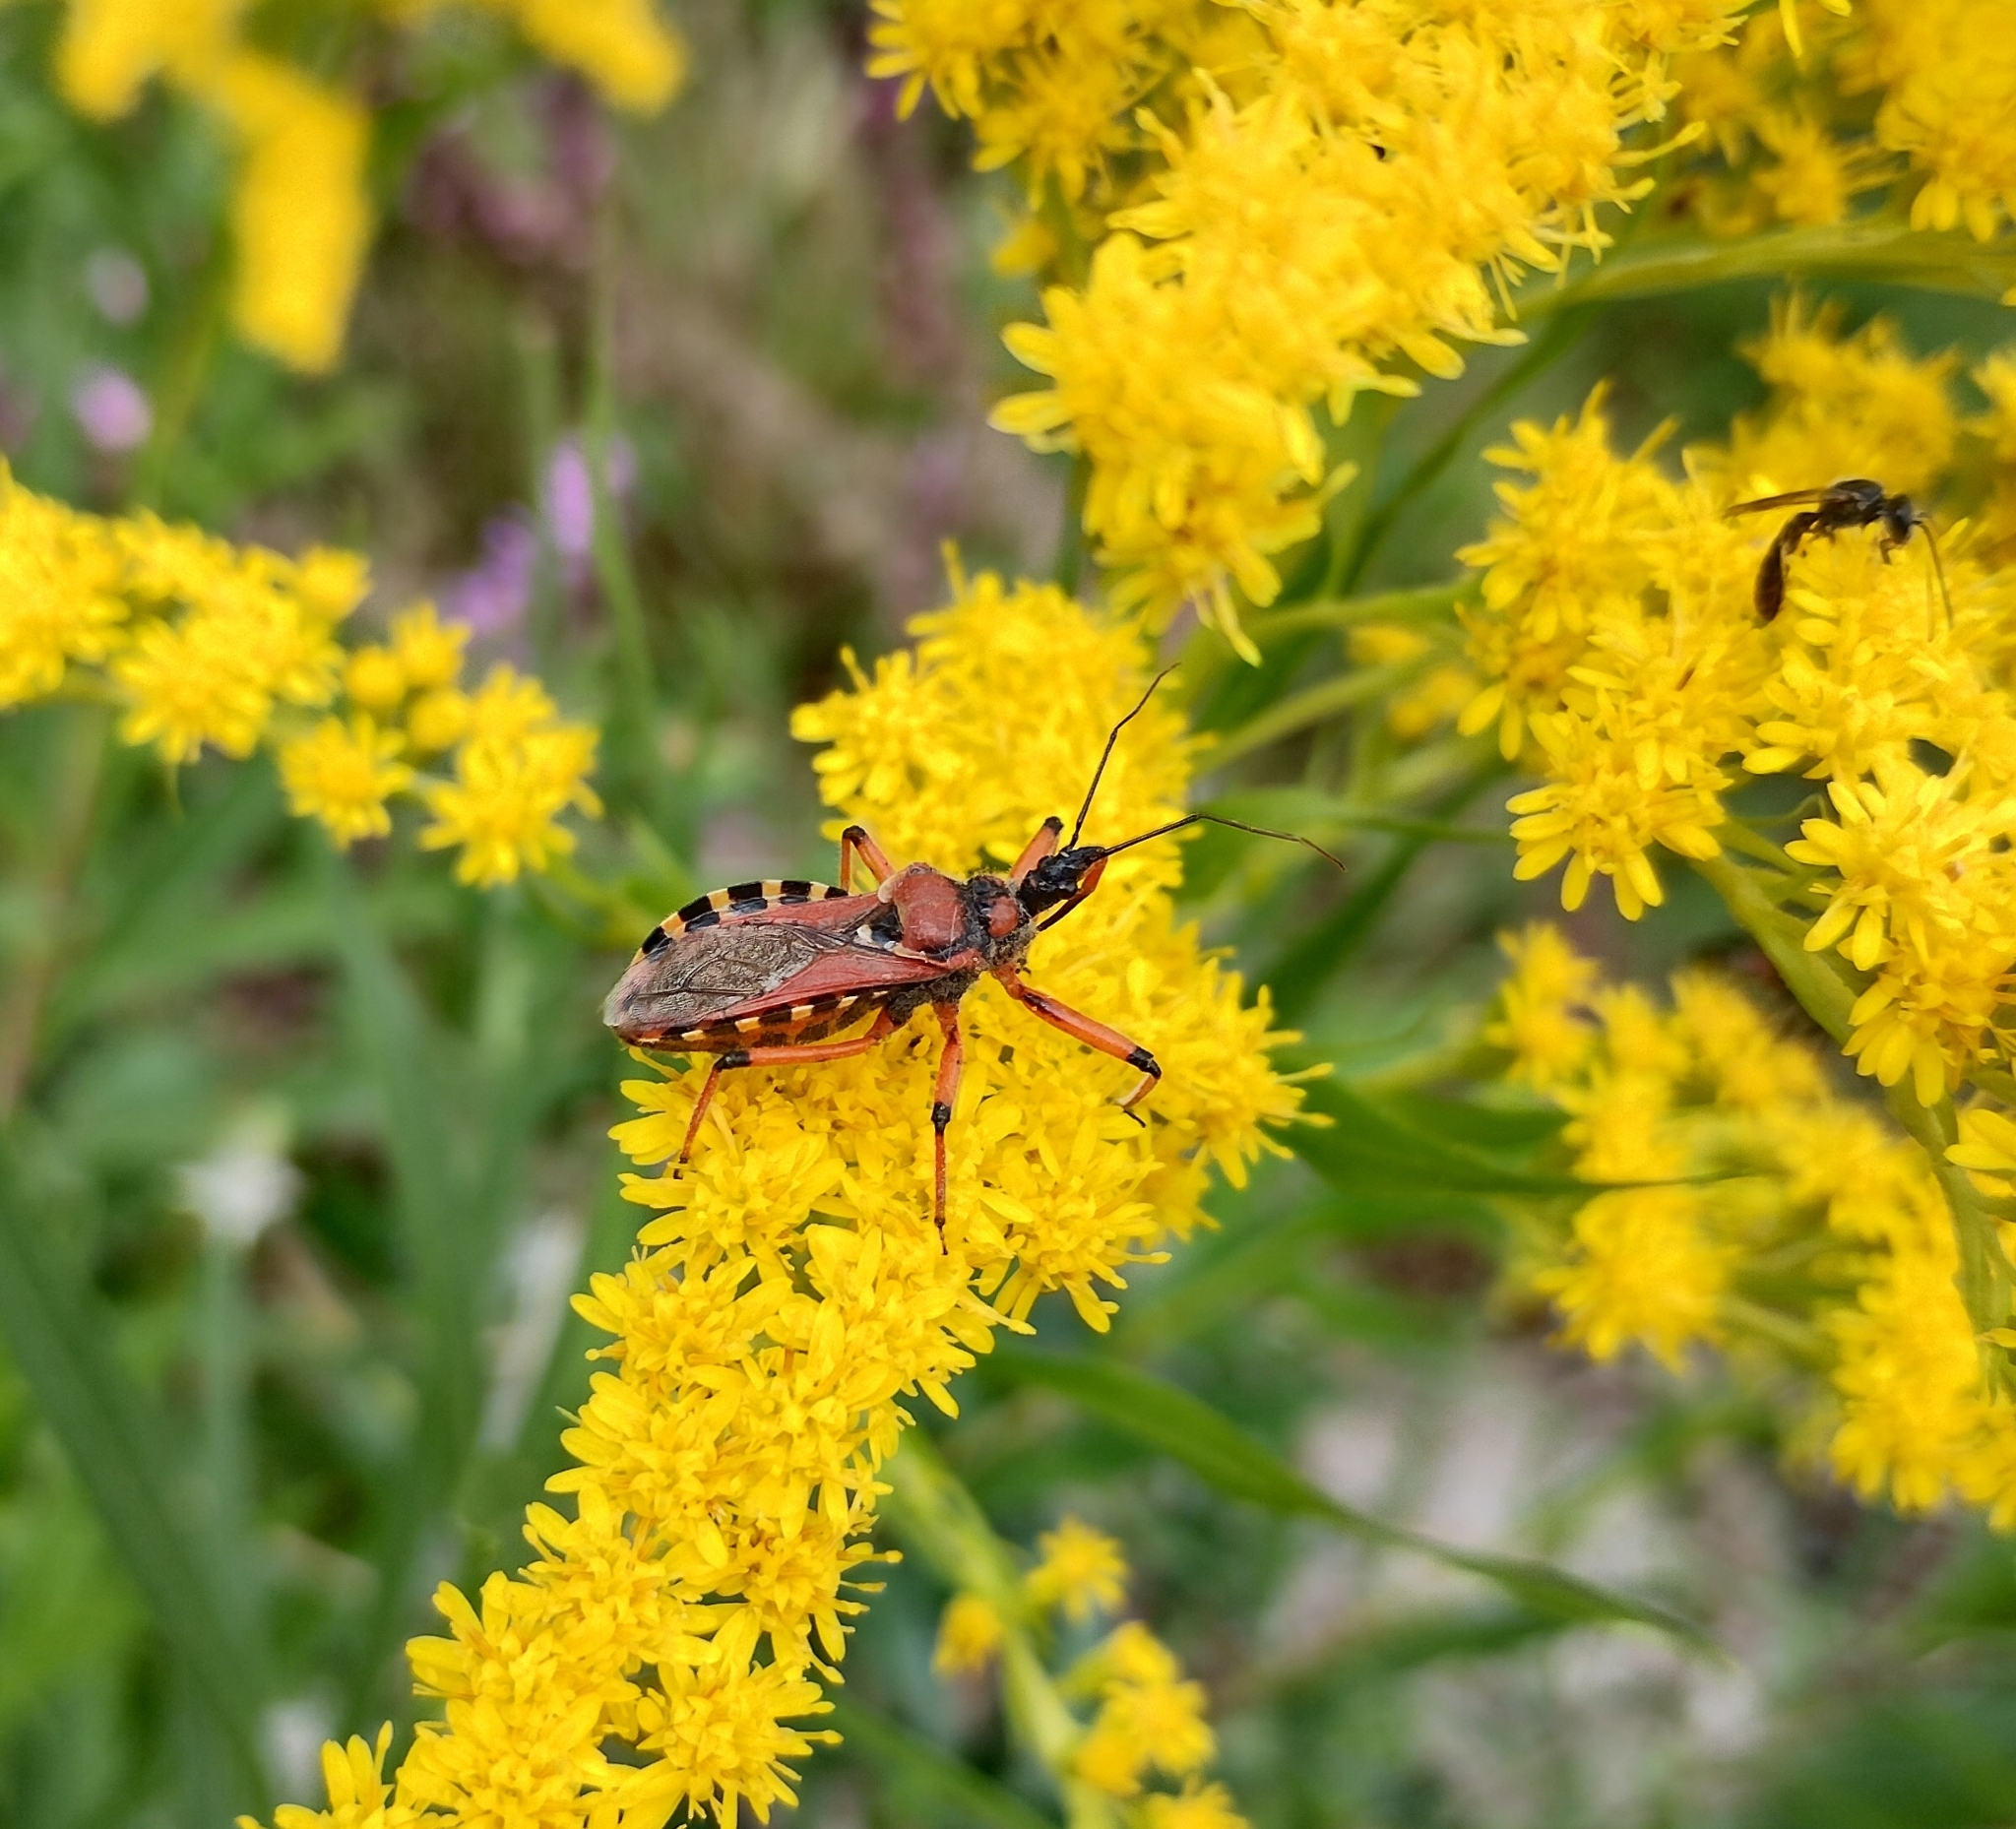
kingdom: Animalia
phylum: Arthropoda
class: Insecta
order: Hemiptera
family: Reduviidae
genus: Rhynocoris
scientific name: Rhynocoris iracundus
